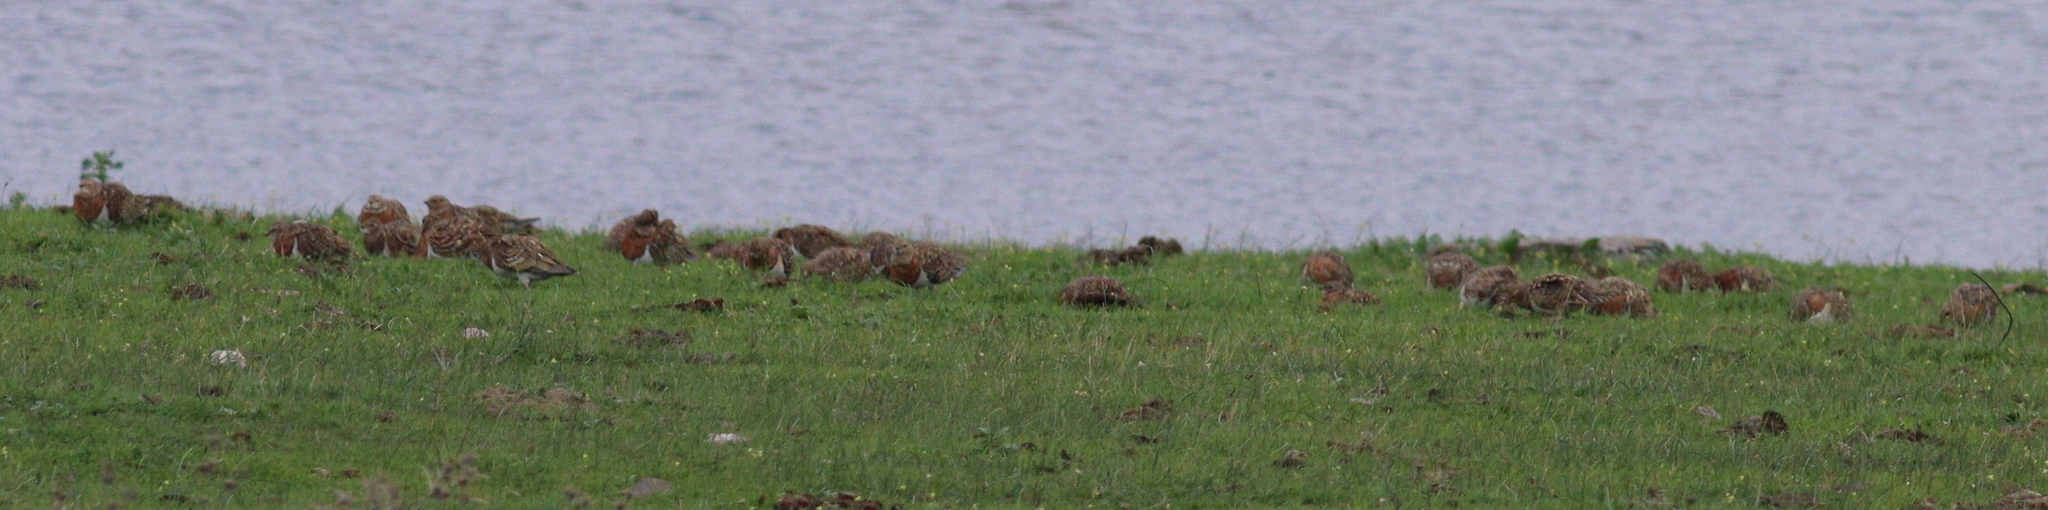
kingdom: Animalia
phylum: Chordata
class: Aves
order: Pteroclidiformes
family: Pteroclididae
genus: Pterocles
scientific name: Pterocles alchata
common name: Pin-tailed sandgrouse
